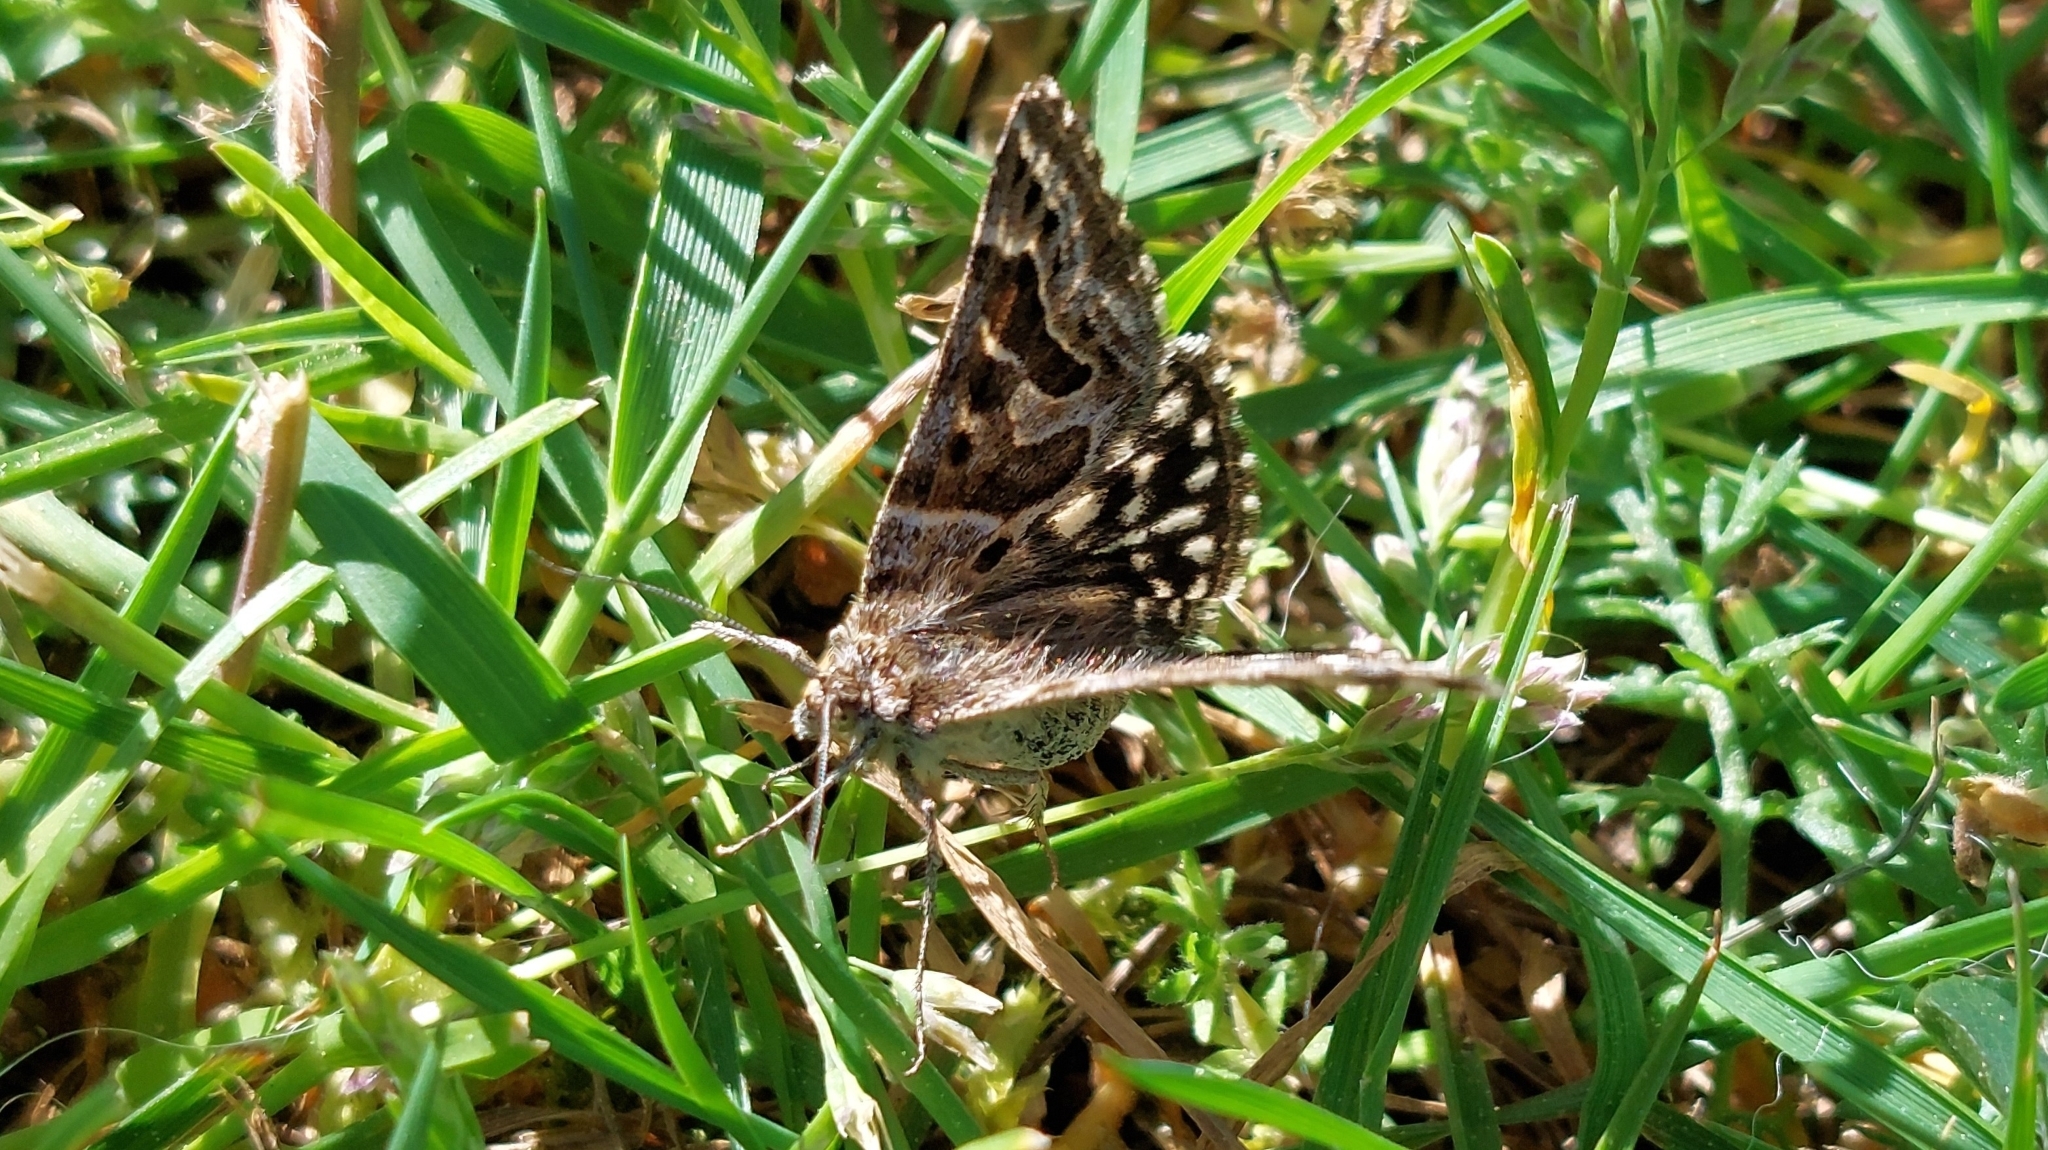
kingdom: Animalia
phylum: Arthropoda
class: Insecta
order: Lepidoptera
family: Erebidae
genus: Callistege
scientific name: Callistege mi
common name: Mother shipton
